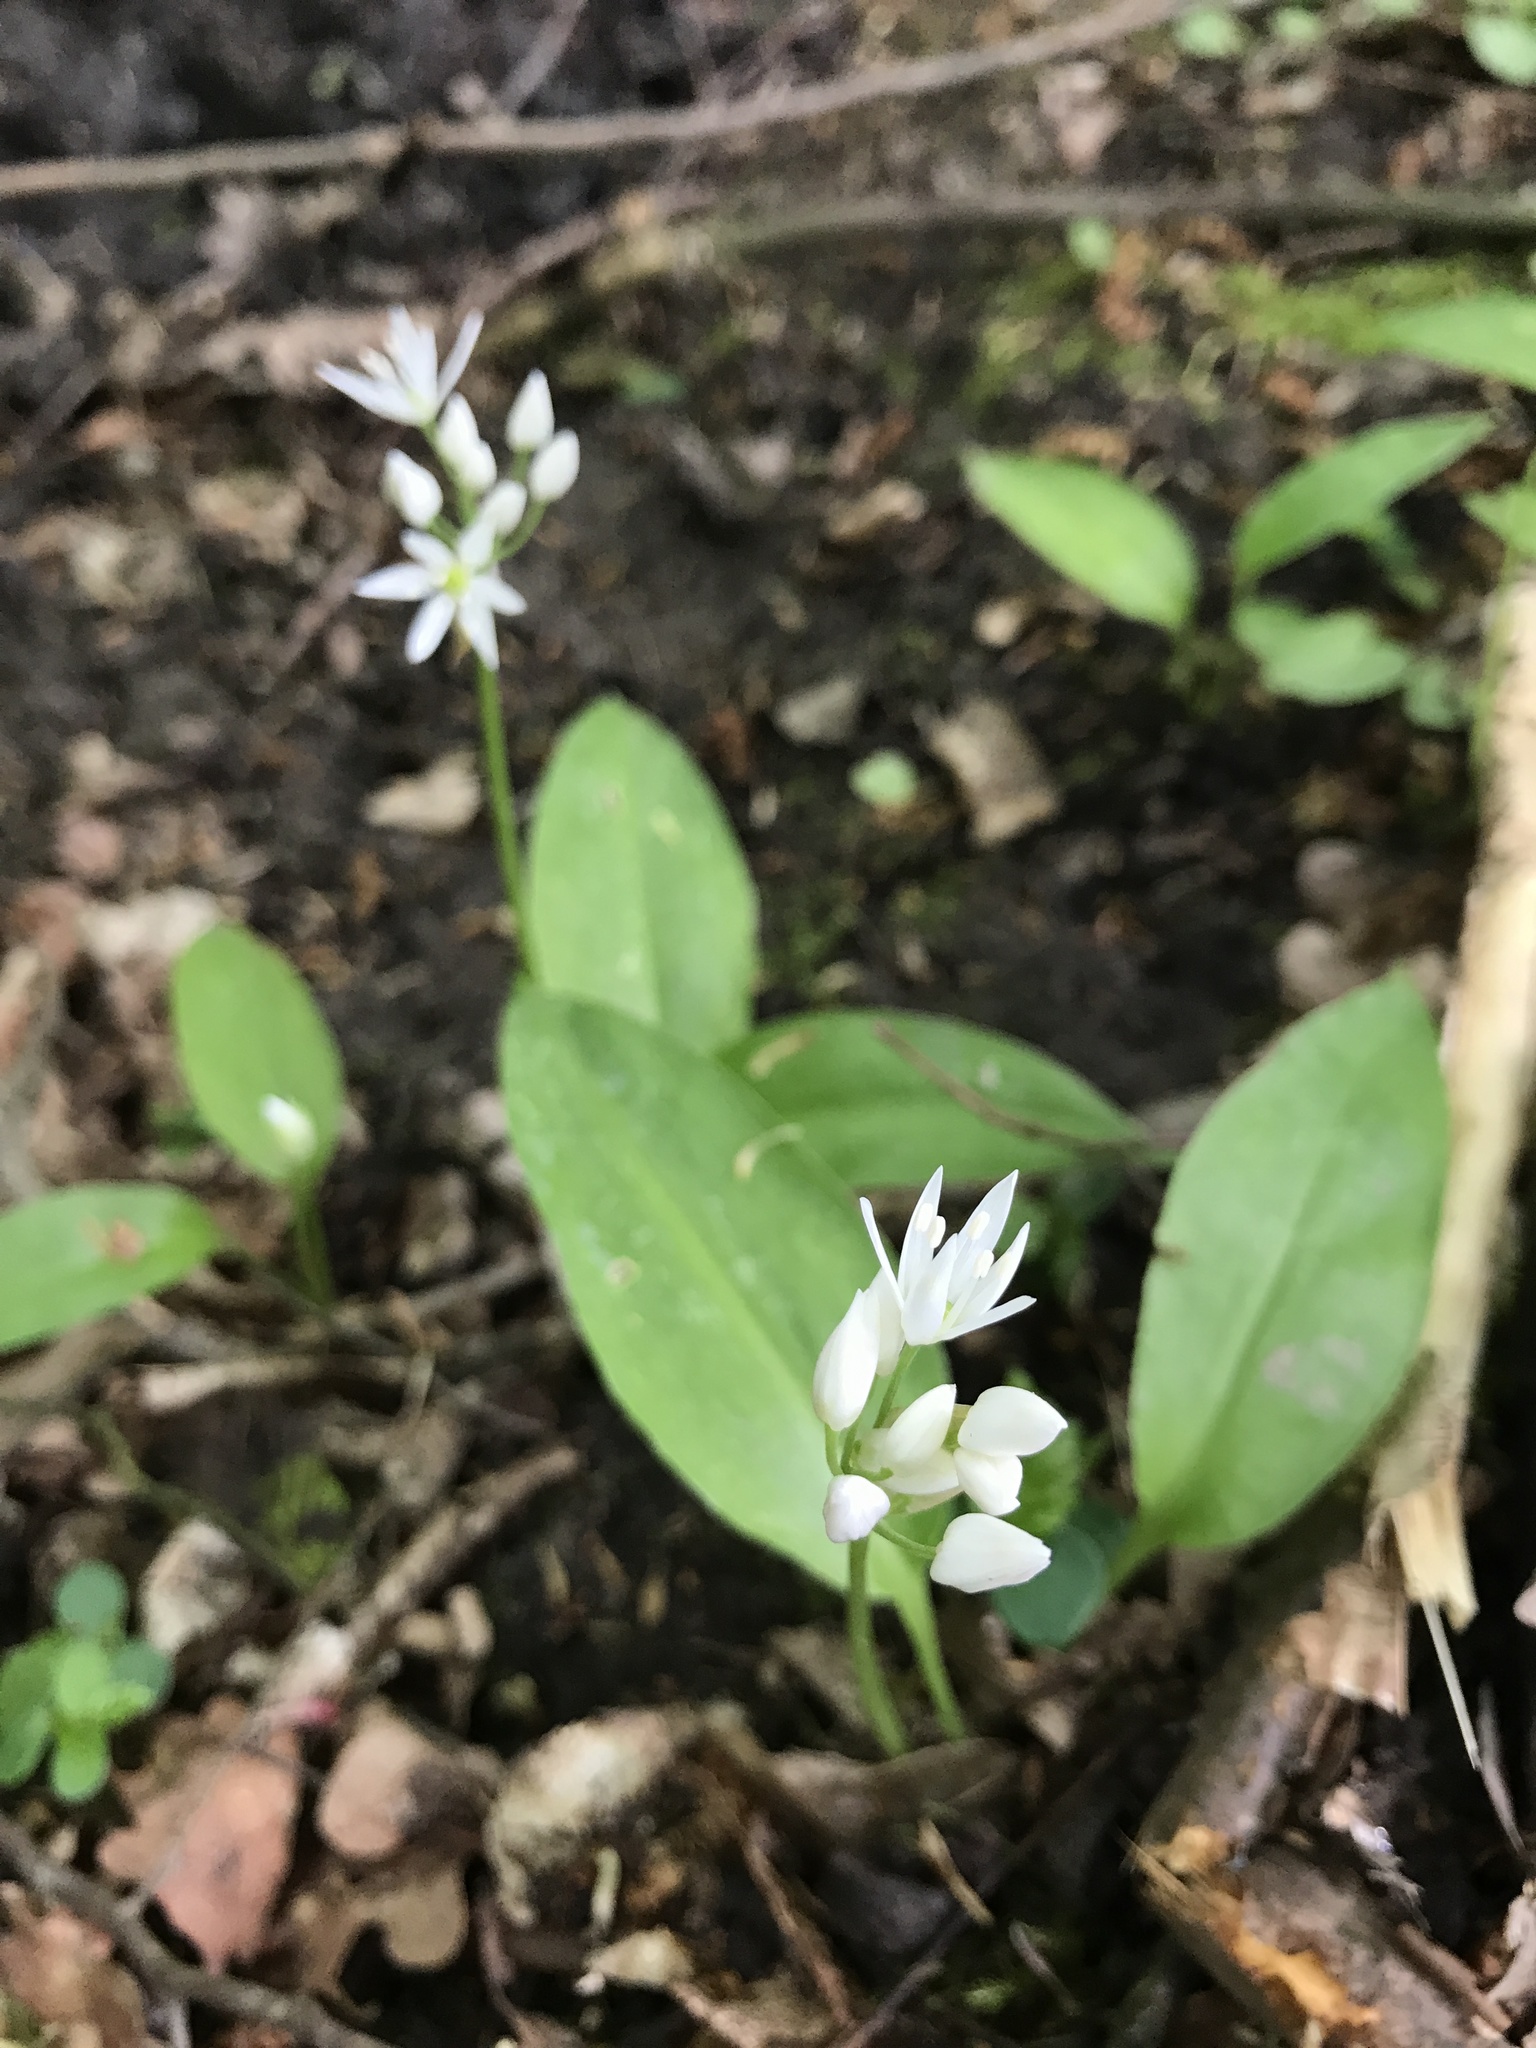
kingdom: Plantae
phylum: Tracheophyta
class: Liliopsida
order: Asparagales
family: Amaryllidaceae
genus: Allium
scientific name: Allium ursinum
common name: Ramsons
